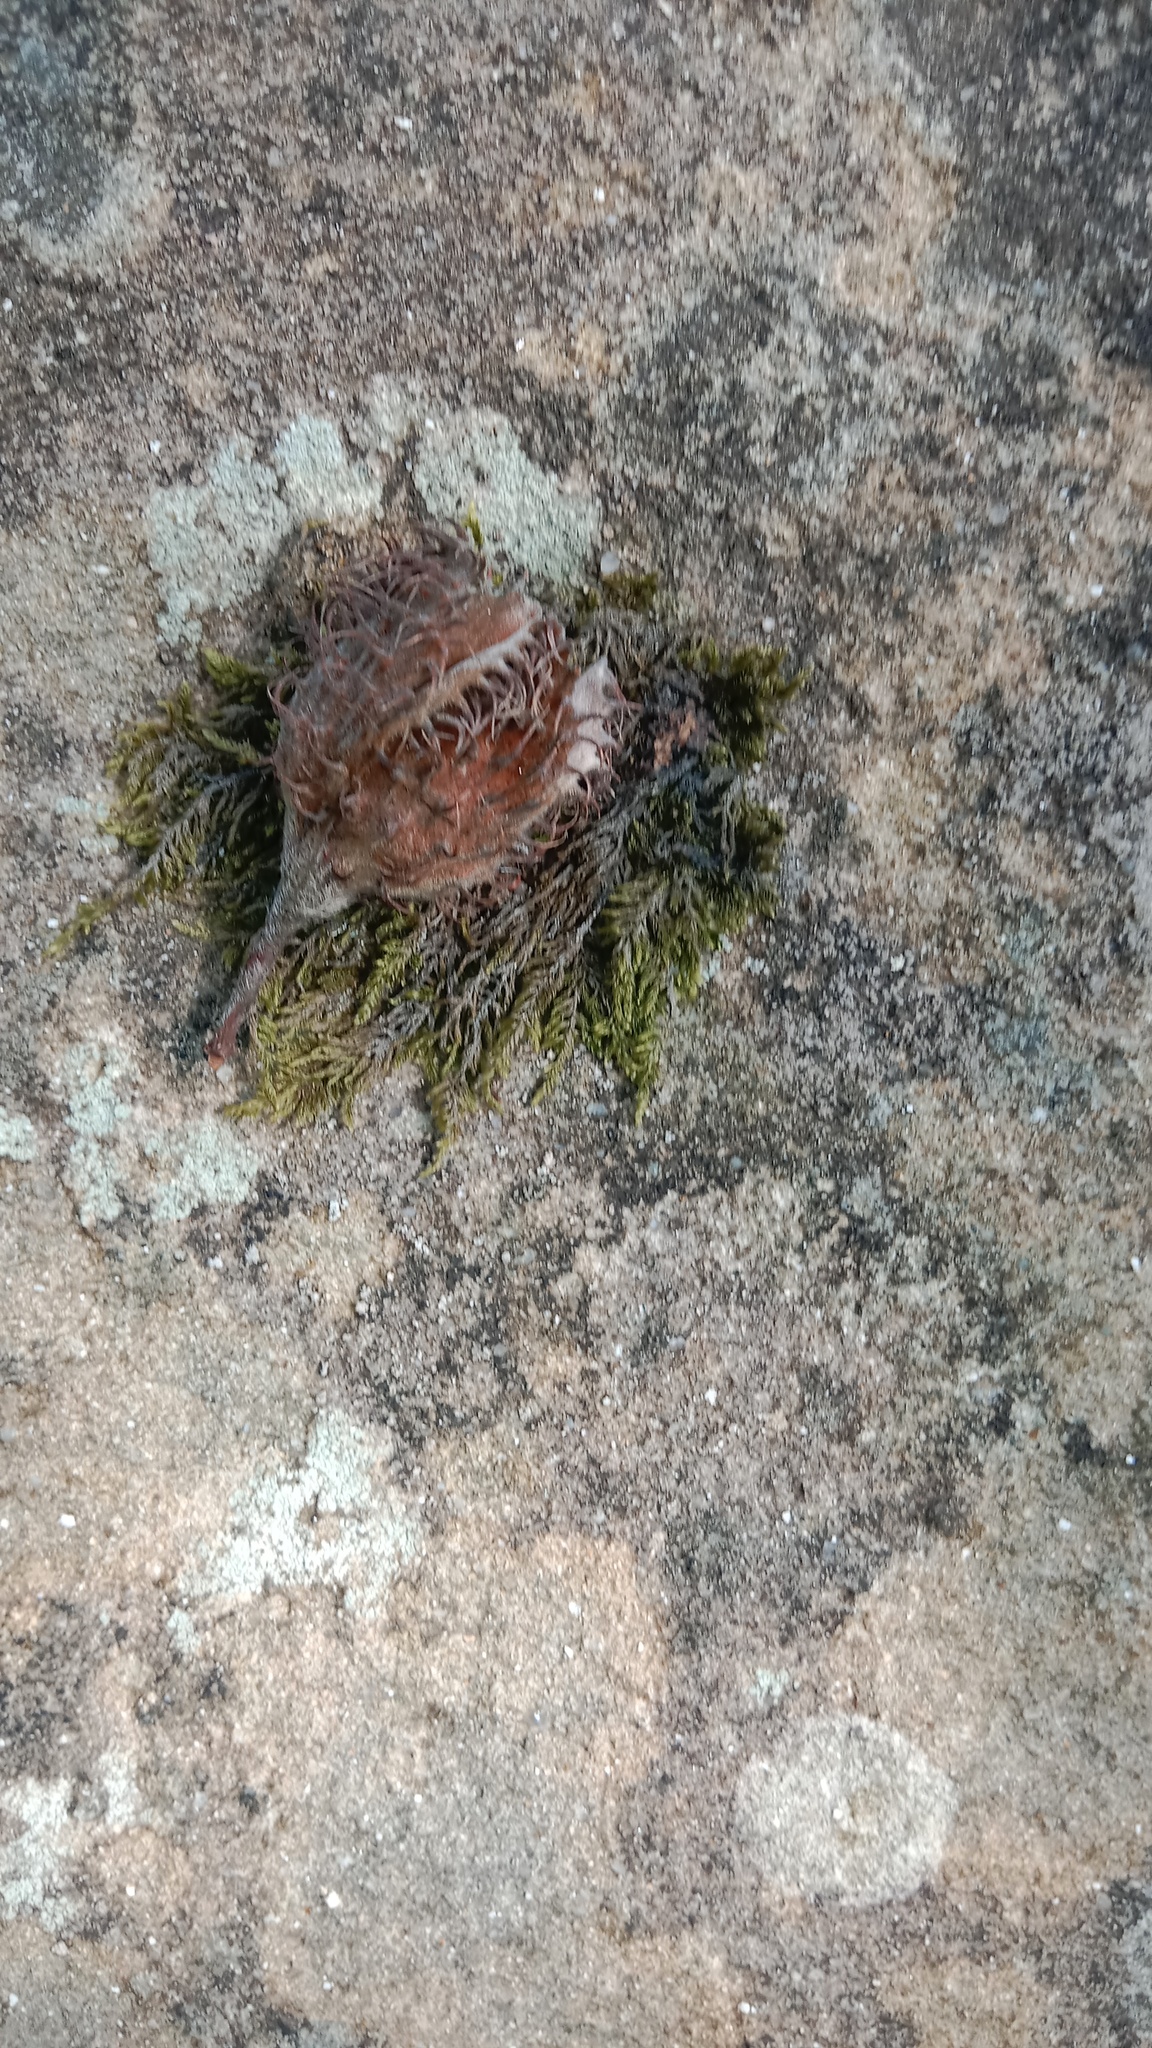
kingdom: Plantae
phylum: Tracheophyta
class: Magnoliopsida
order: Fagales
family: Fagaceae
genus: Fagus
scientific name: Fagus sylvatica
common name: Beech
